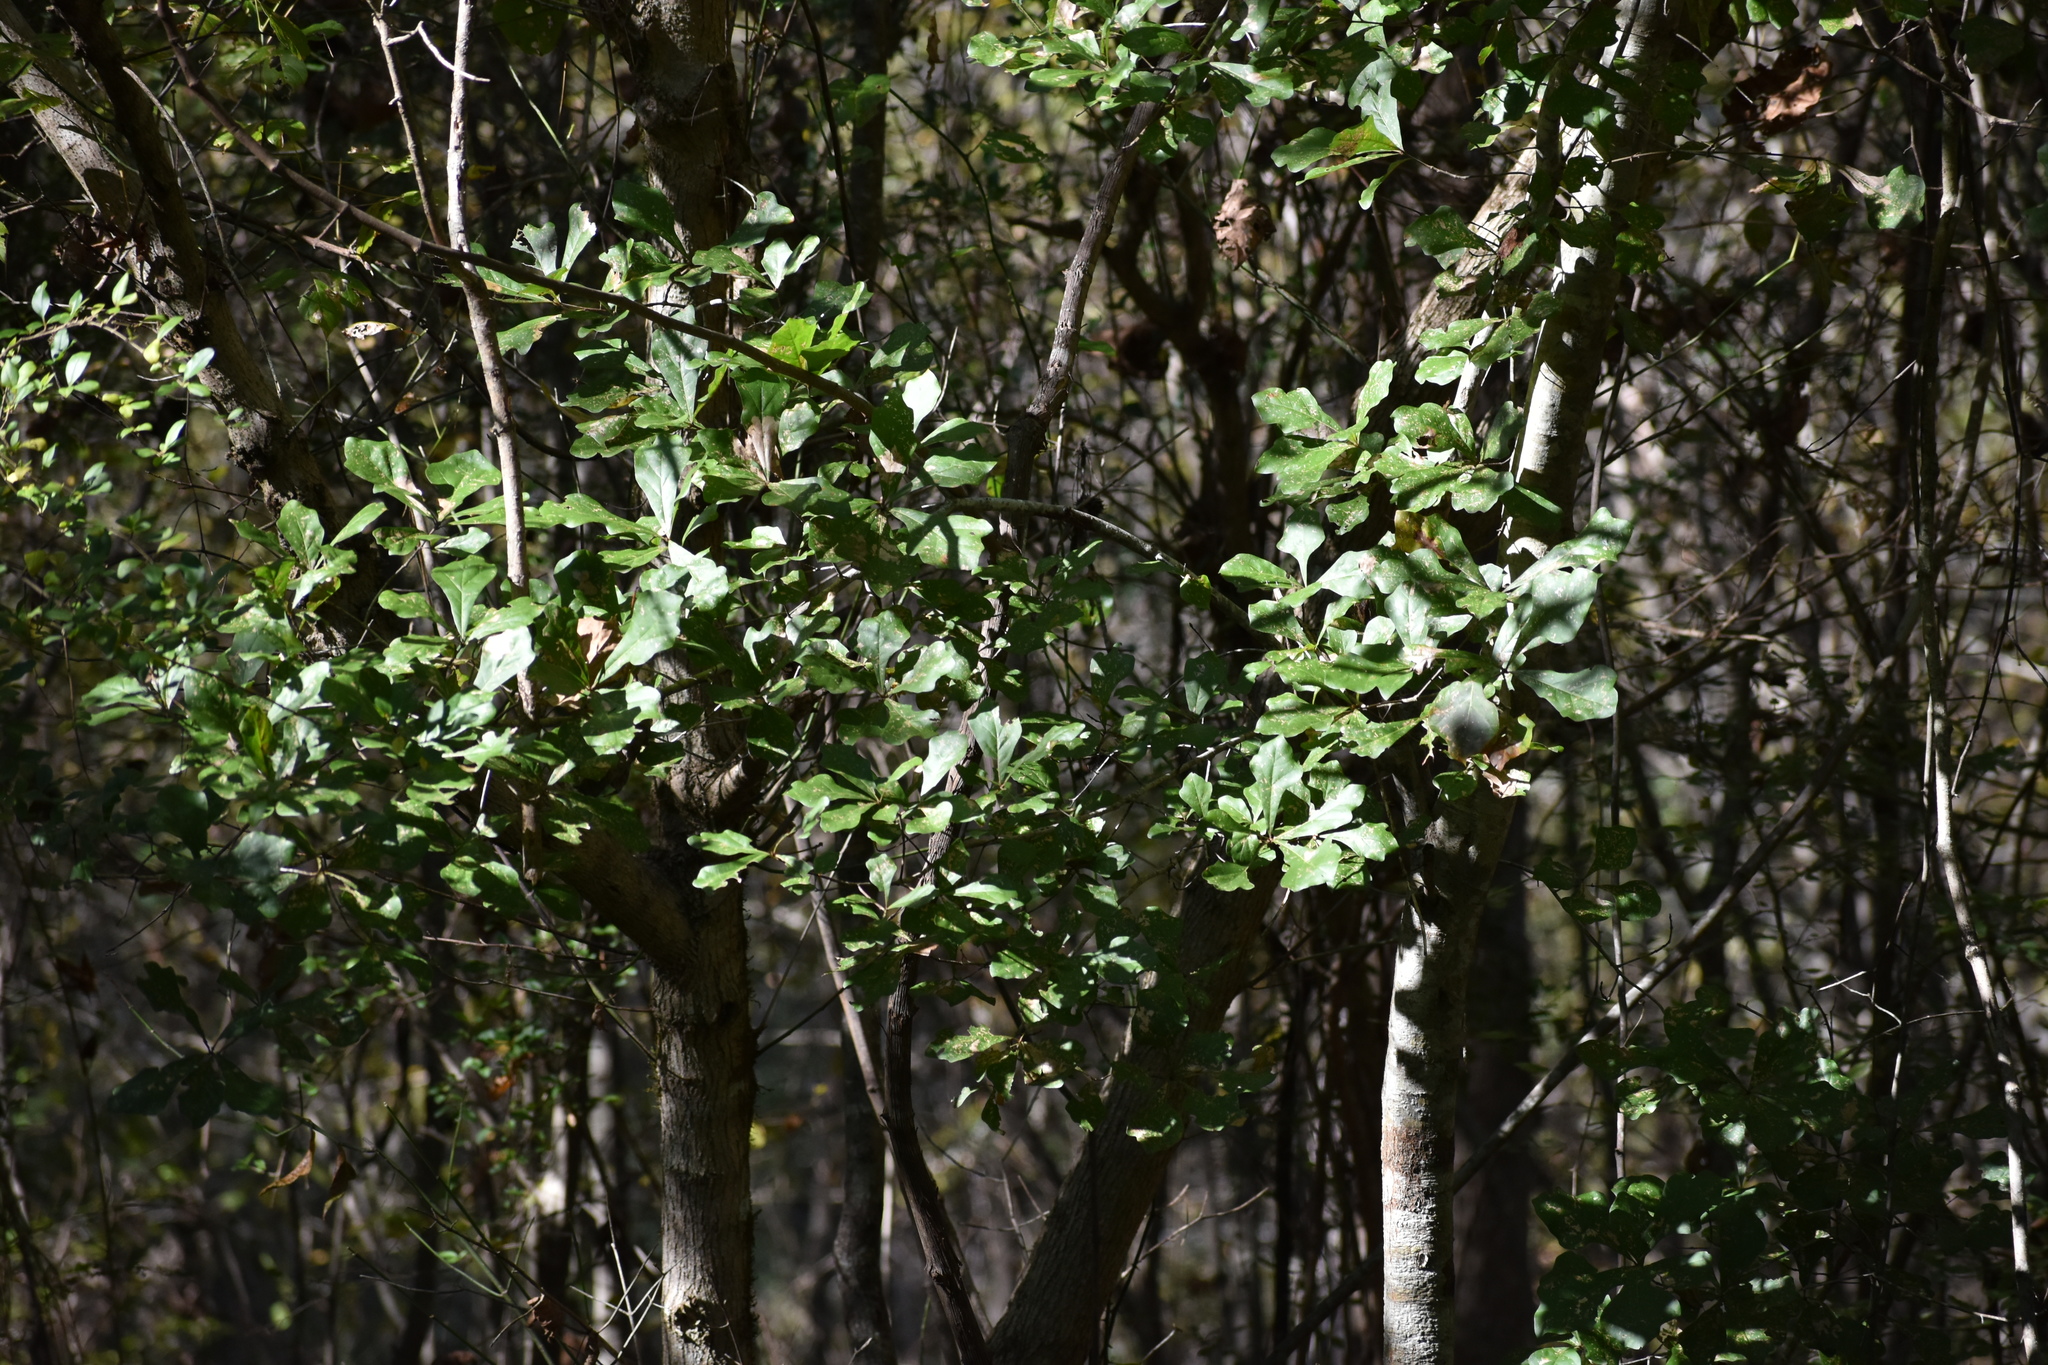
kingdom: Plantae
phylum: Tracheophyta
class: Magnoliopsida
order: Fagales
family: Fagaceae
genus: Quercus
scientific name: Quercus nigra
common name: Water oak
